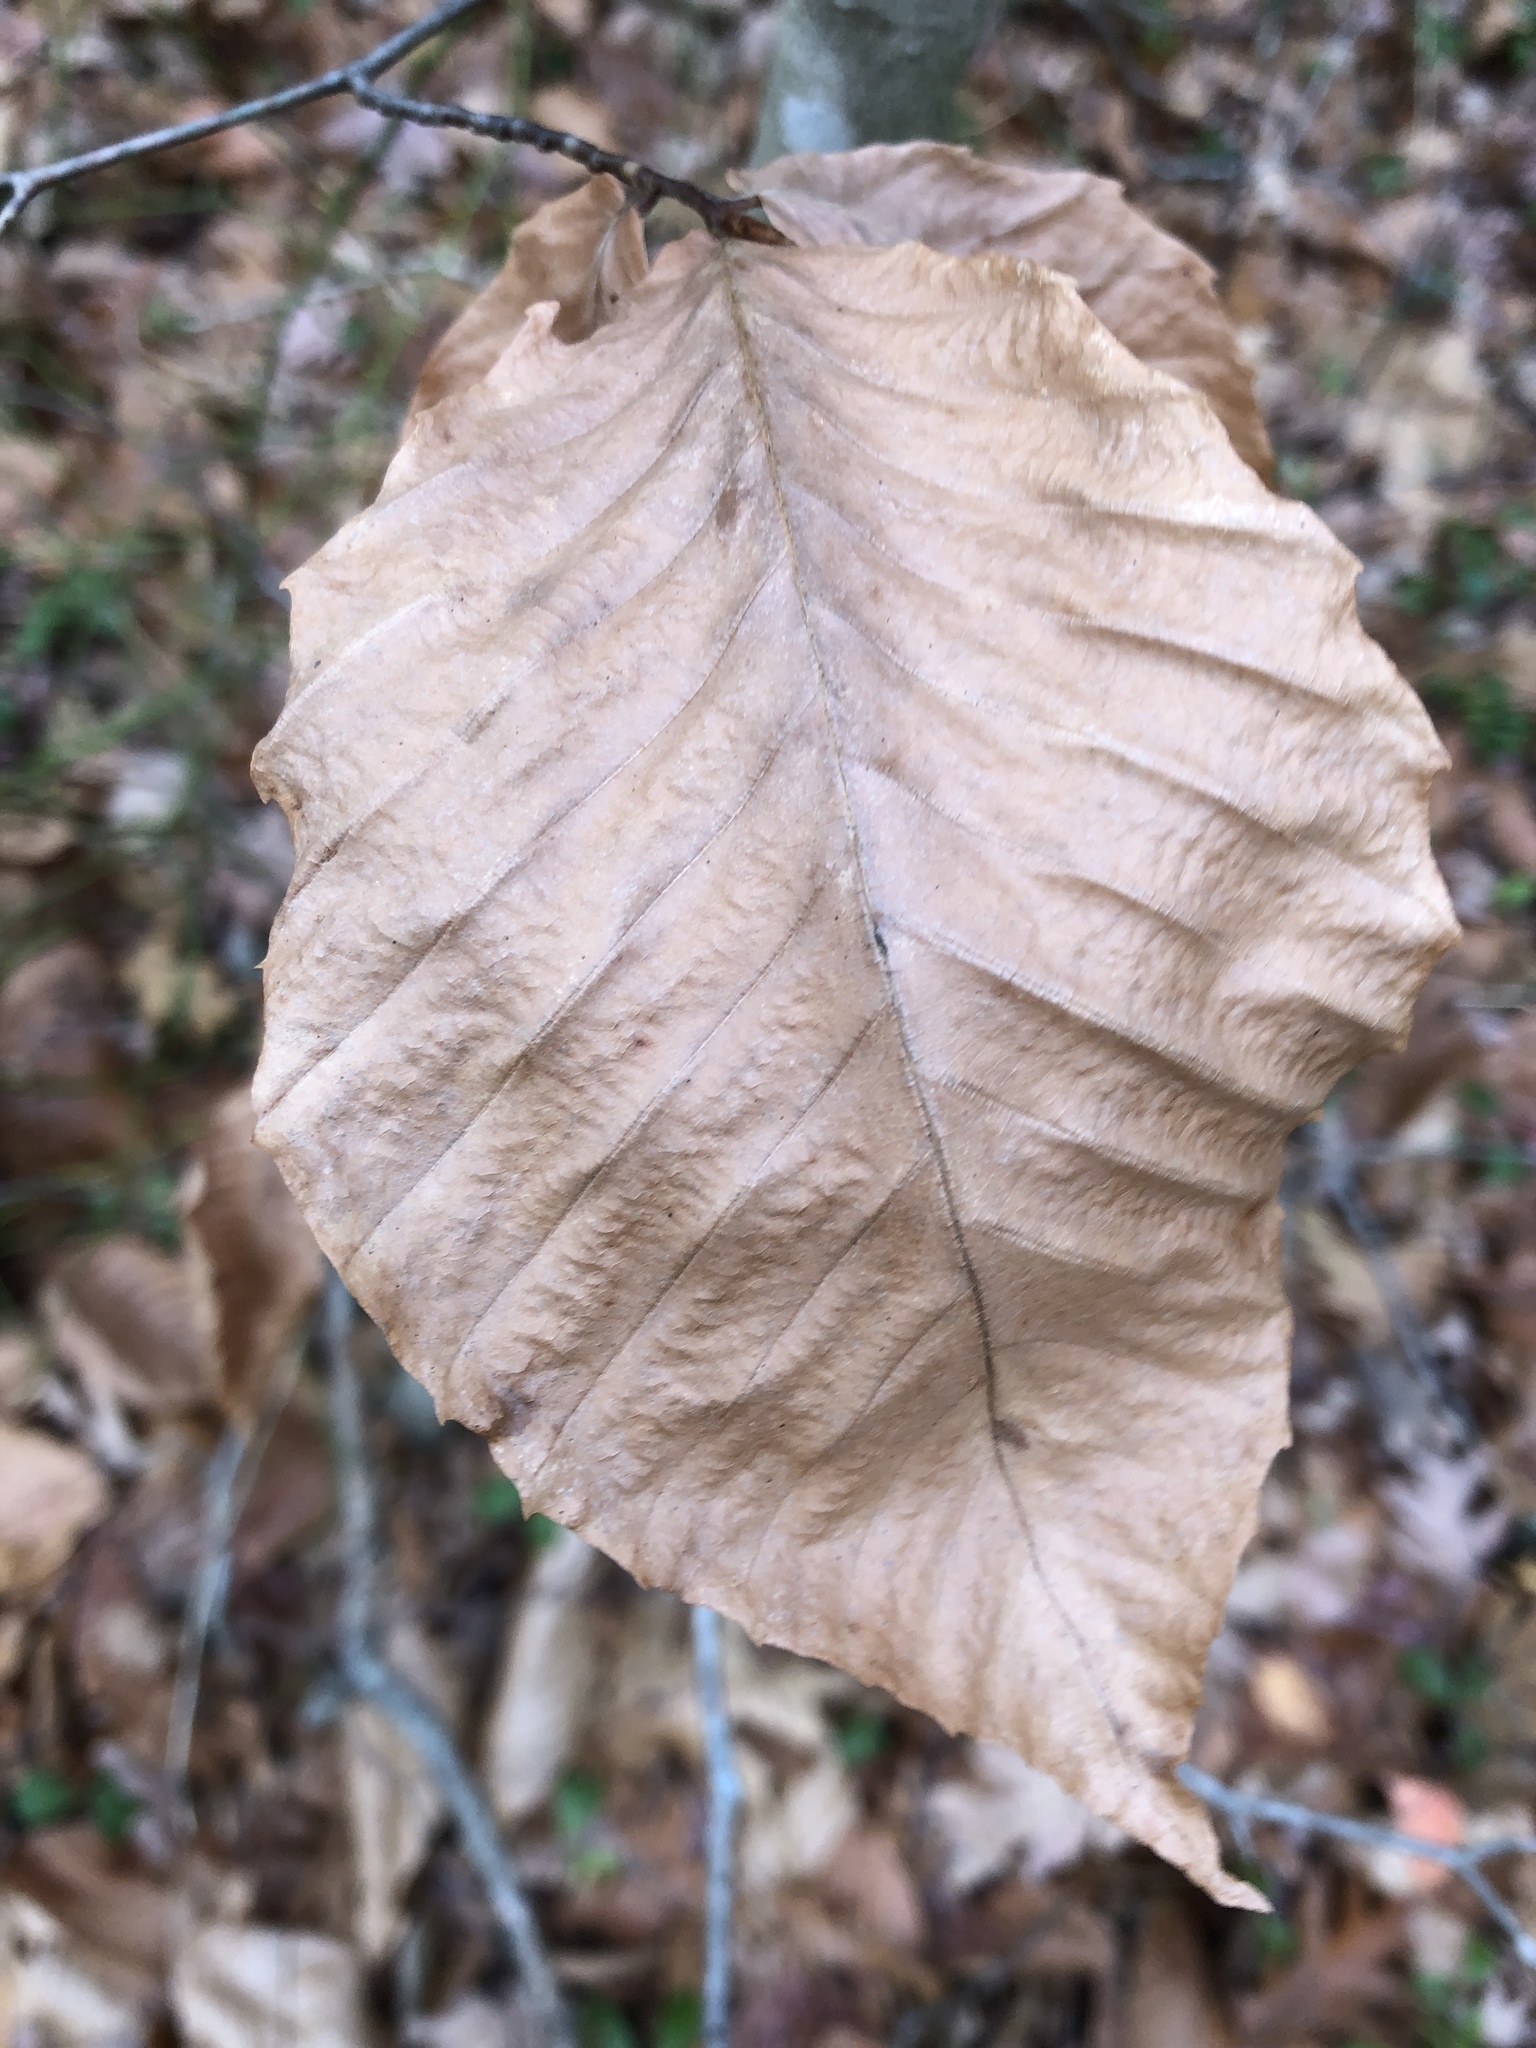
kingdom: Plantae
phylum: Tracheophyta
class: Magnoliopsida
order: Fagales
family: Fagaceae
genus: Fagus
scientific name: Fagus grandifolia
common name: American beech
